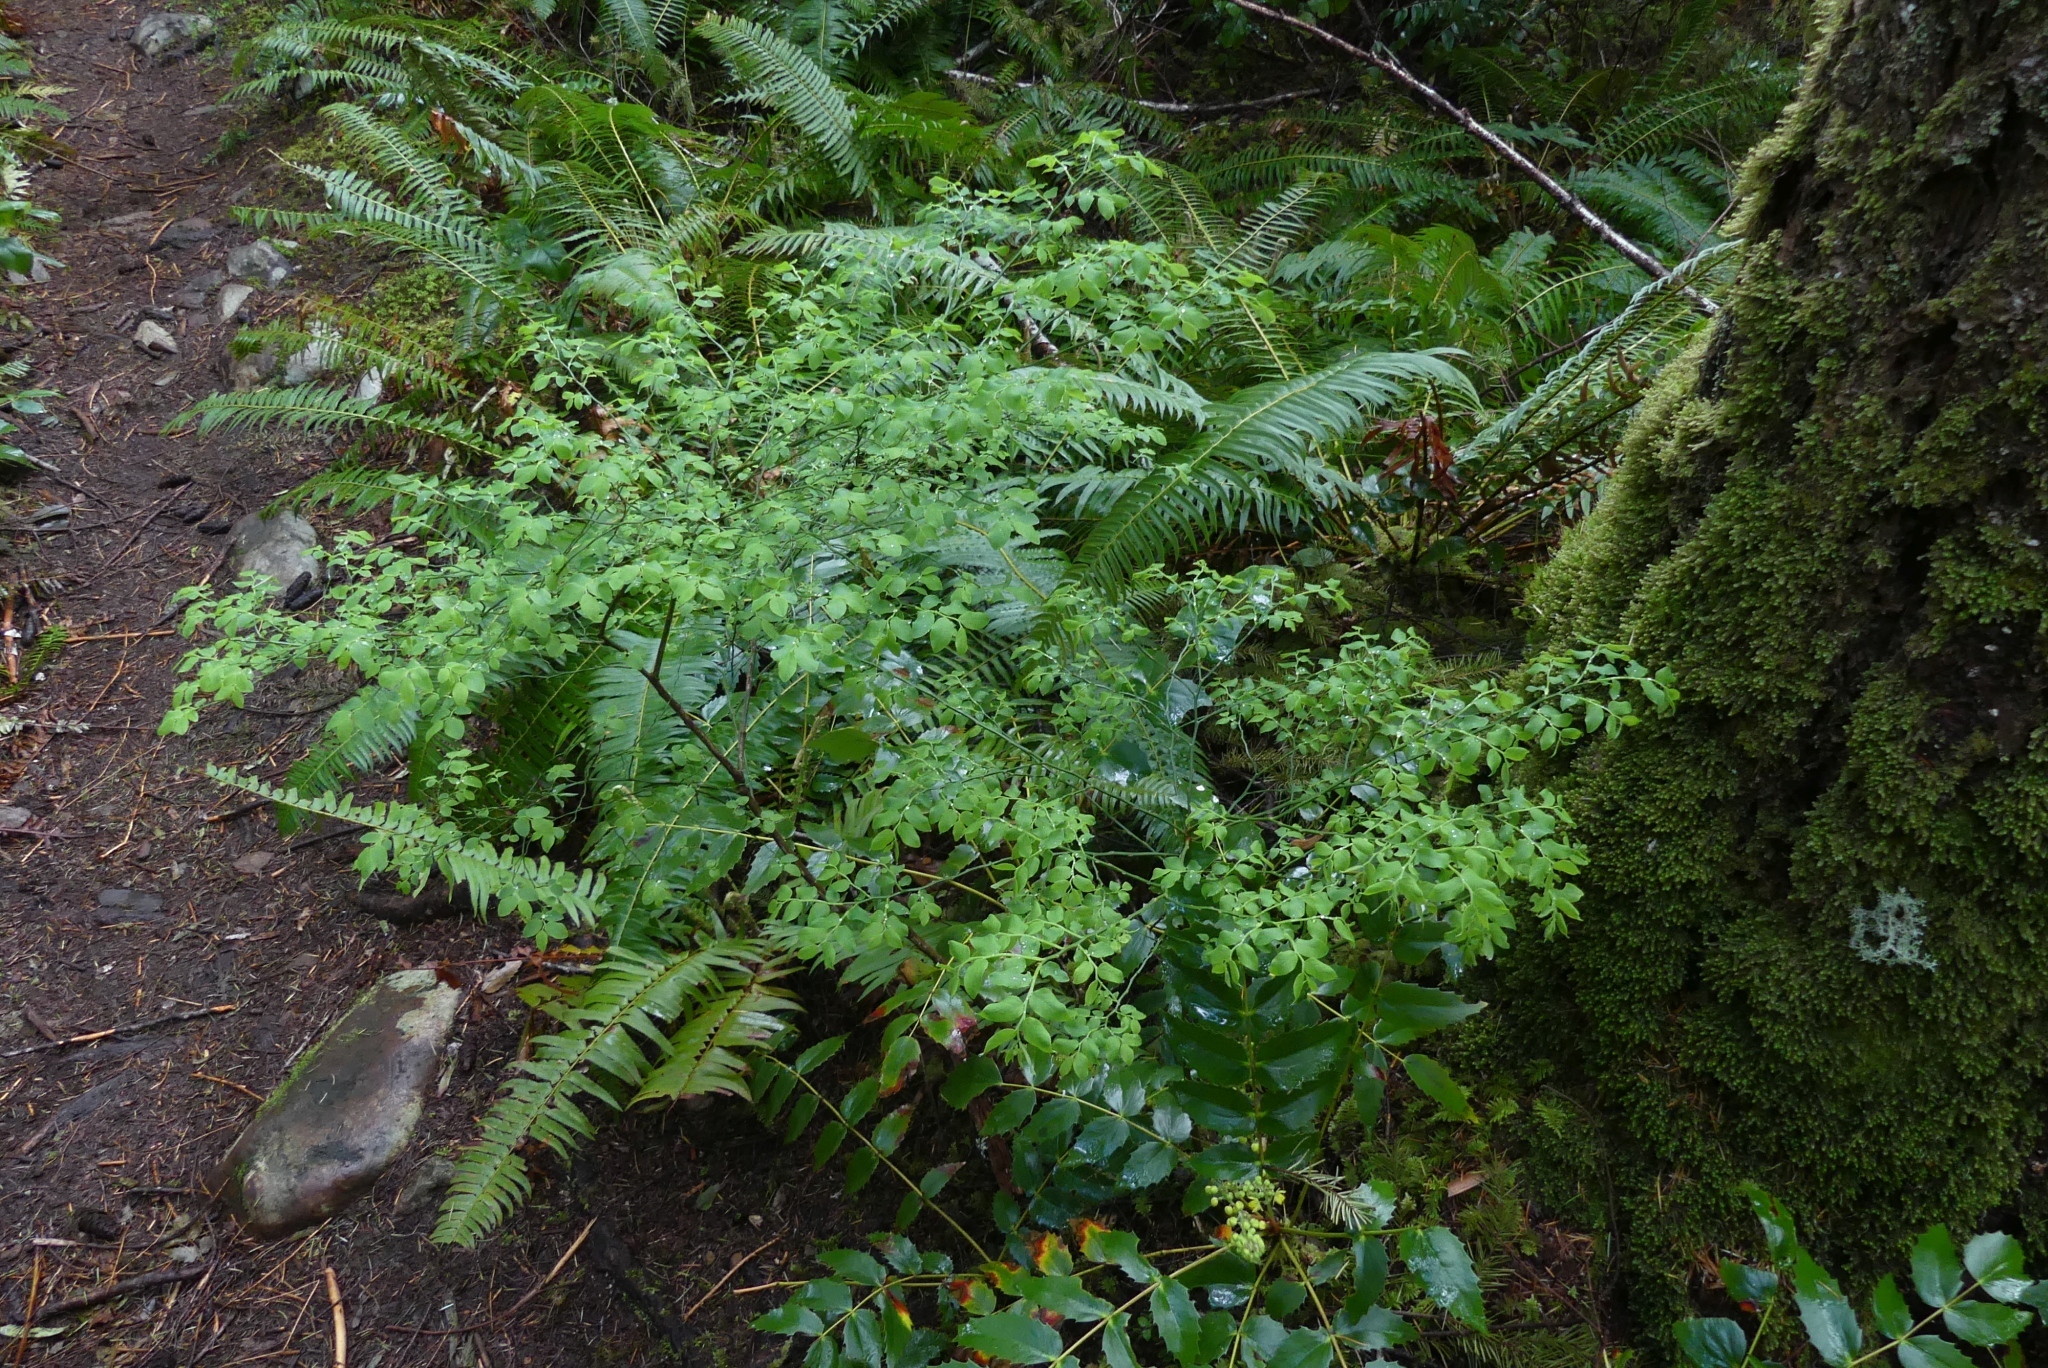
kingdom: Plantae
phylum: Tracheophyta
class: Magnoliopsida
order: Ericales
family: Ericaceae
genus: Vaccinium
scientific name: Vaccinium parvifolium
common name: Red-huckleberry
